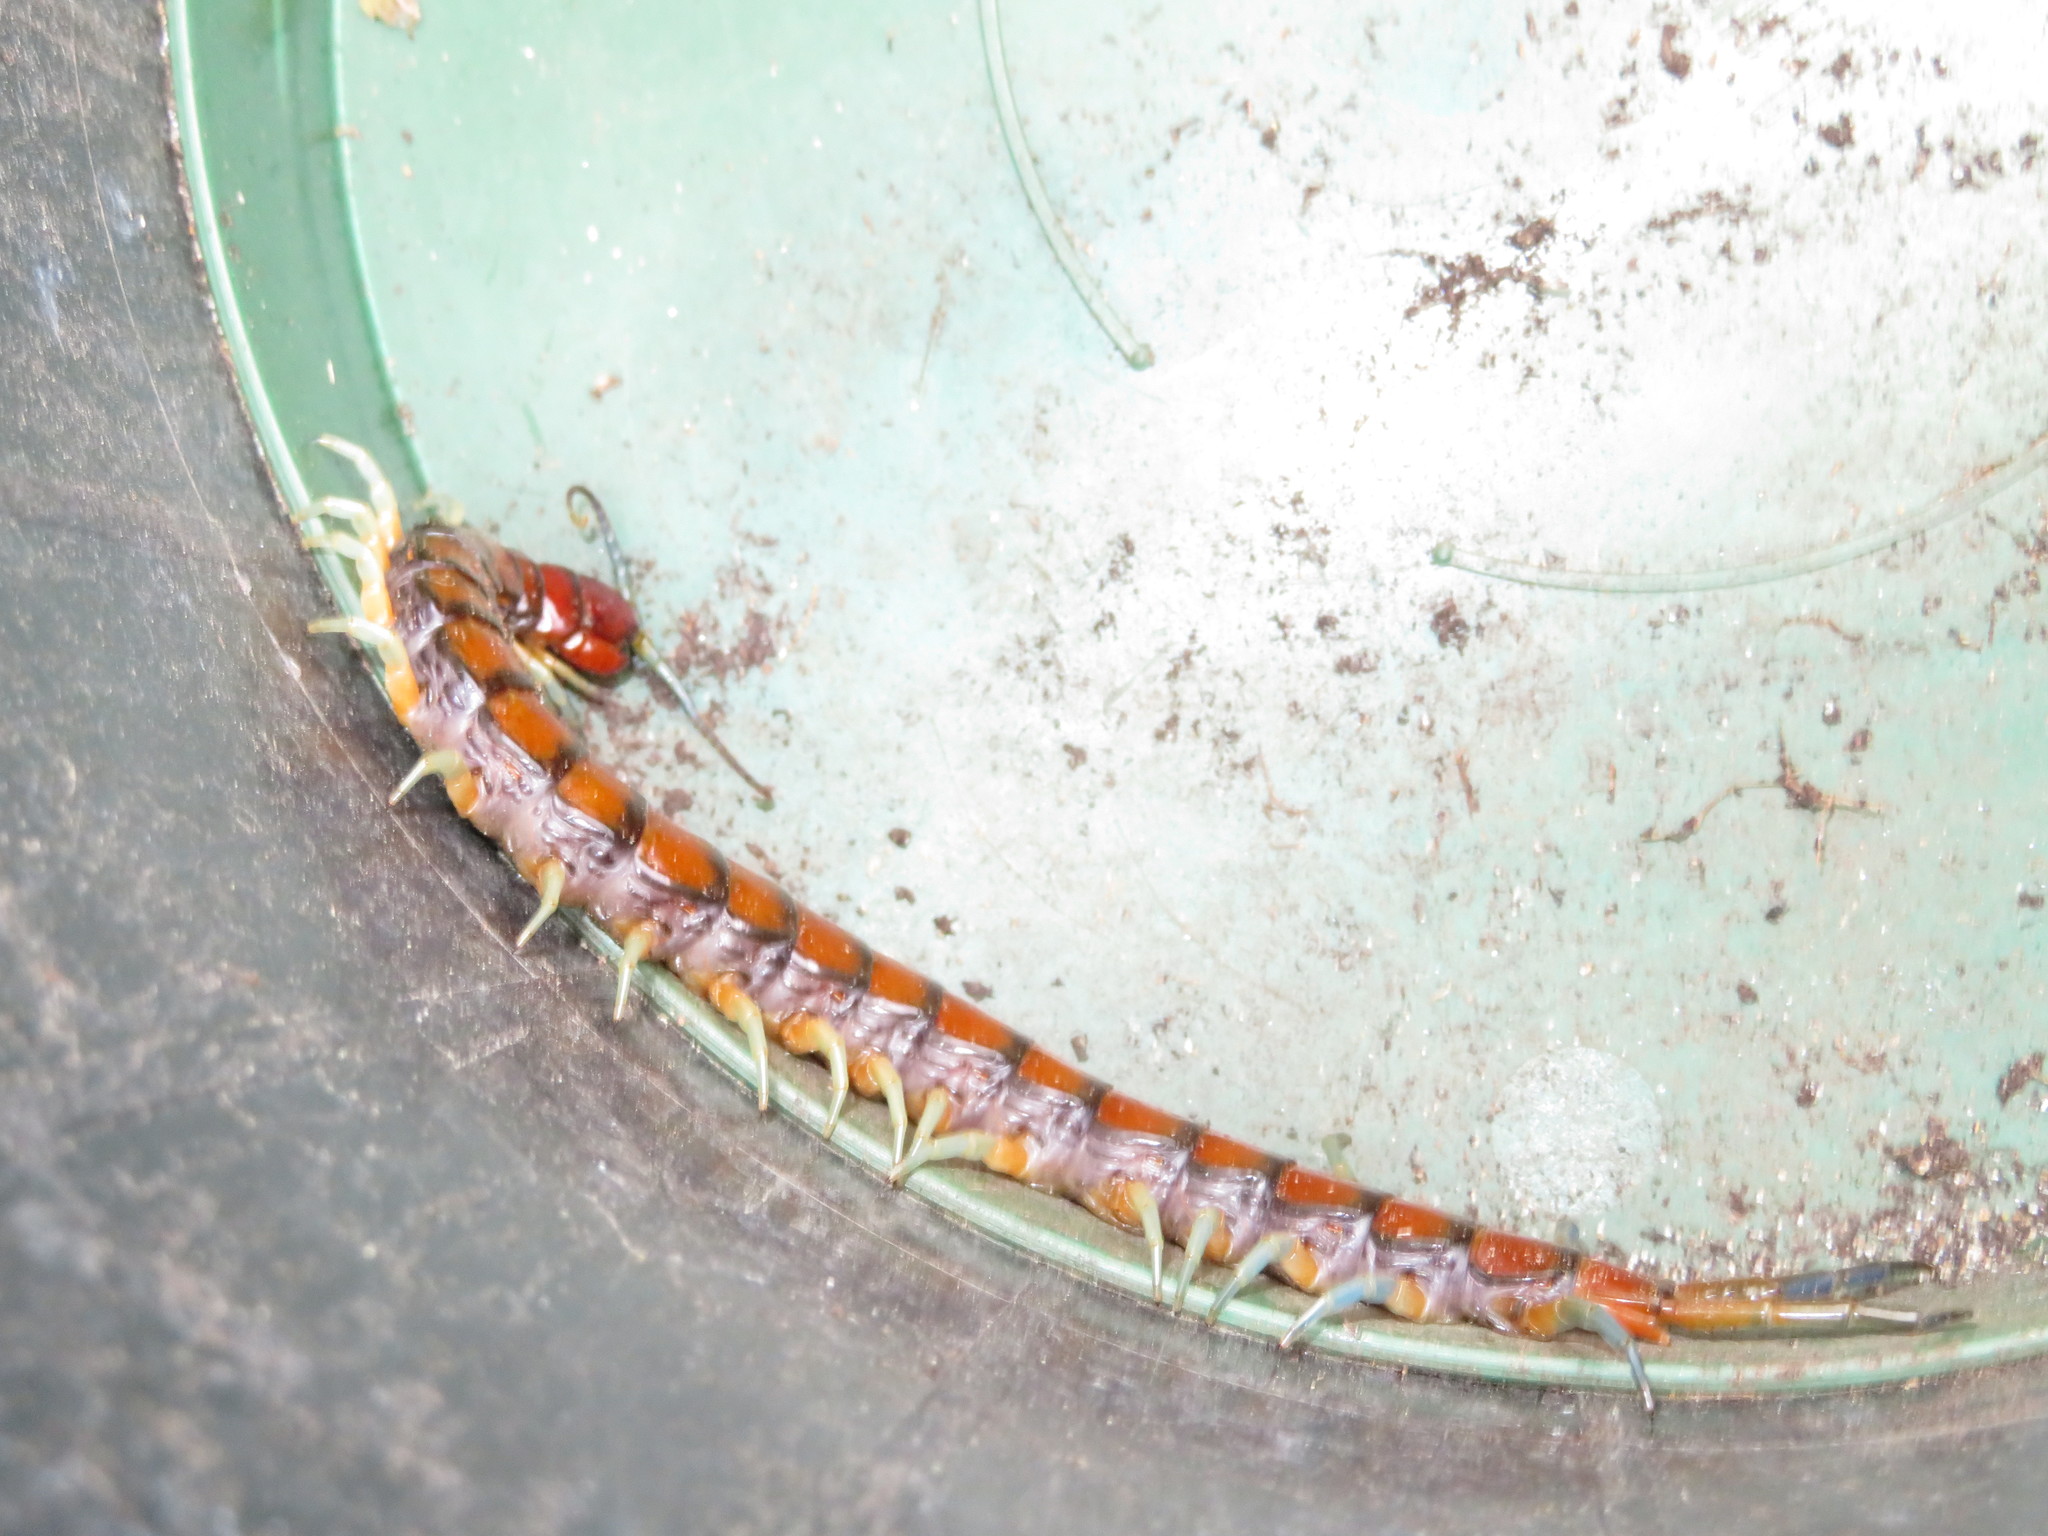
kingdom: Animalia
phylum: Arthropoda
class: Chilopoda
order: Scolopendromorpha
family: Scolopendridae
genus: Cormocephalus
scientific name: Cormocephalus rubriceps
